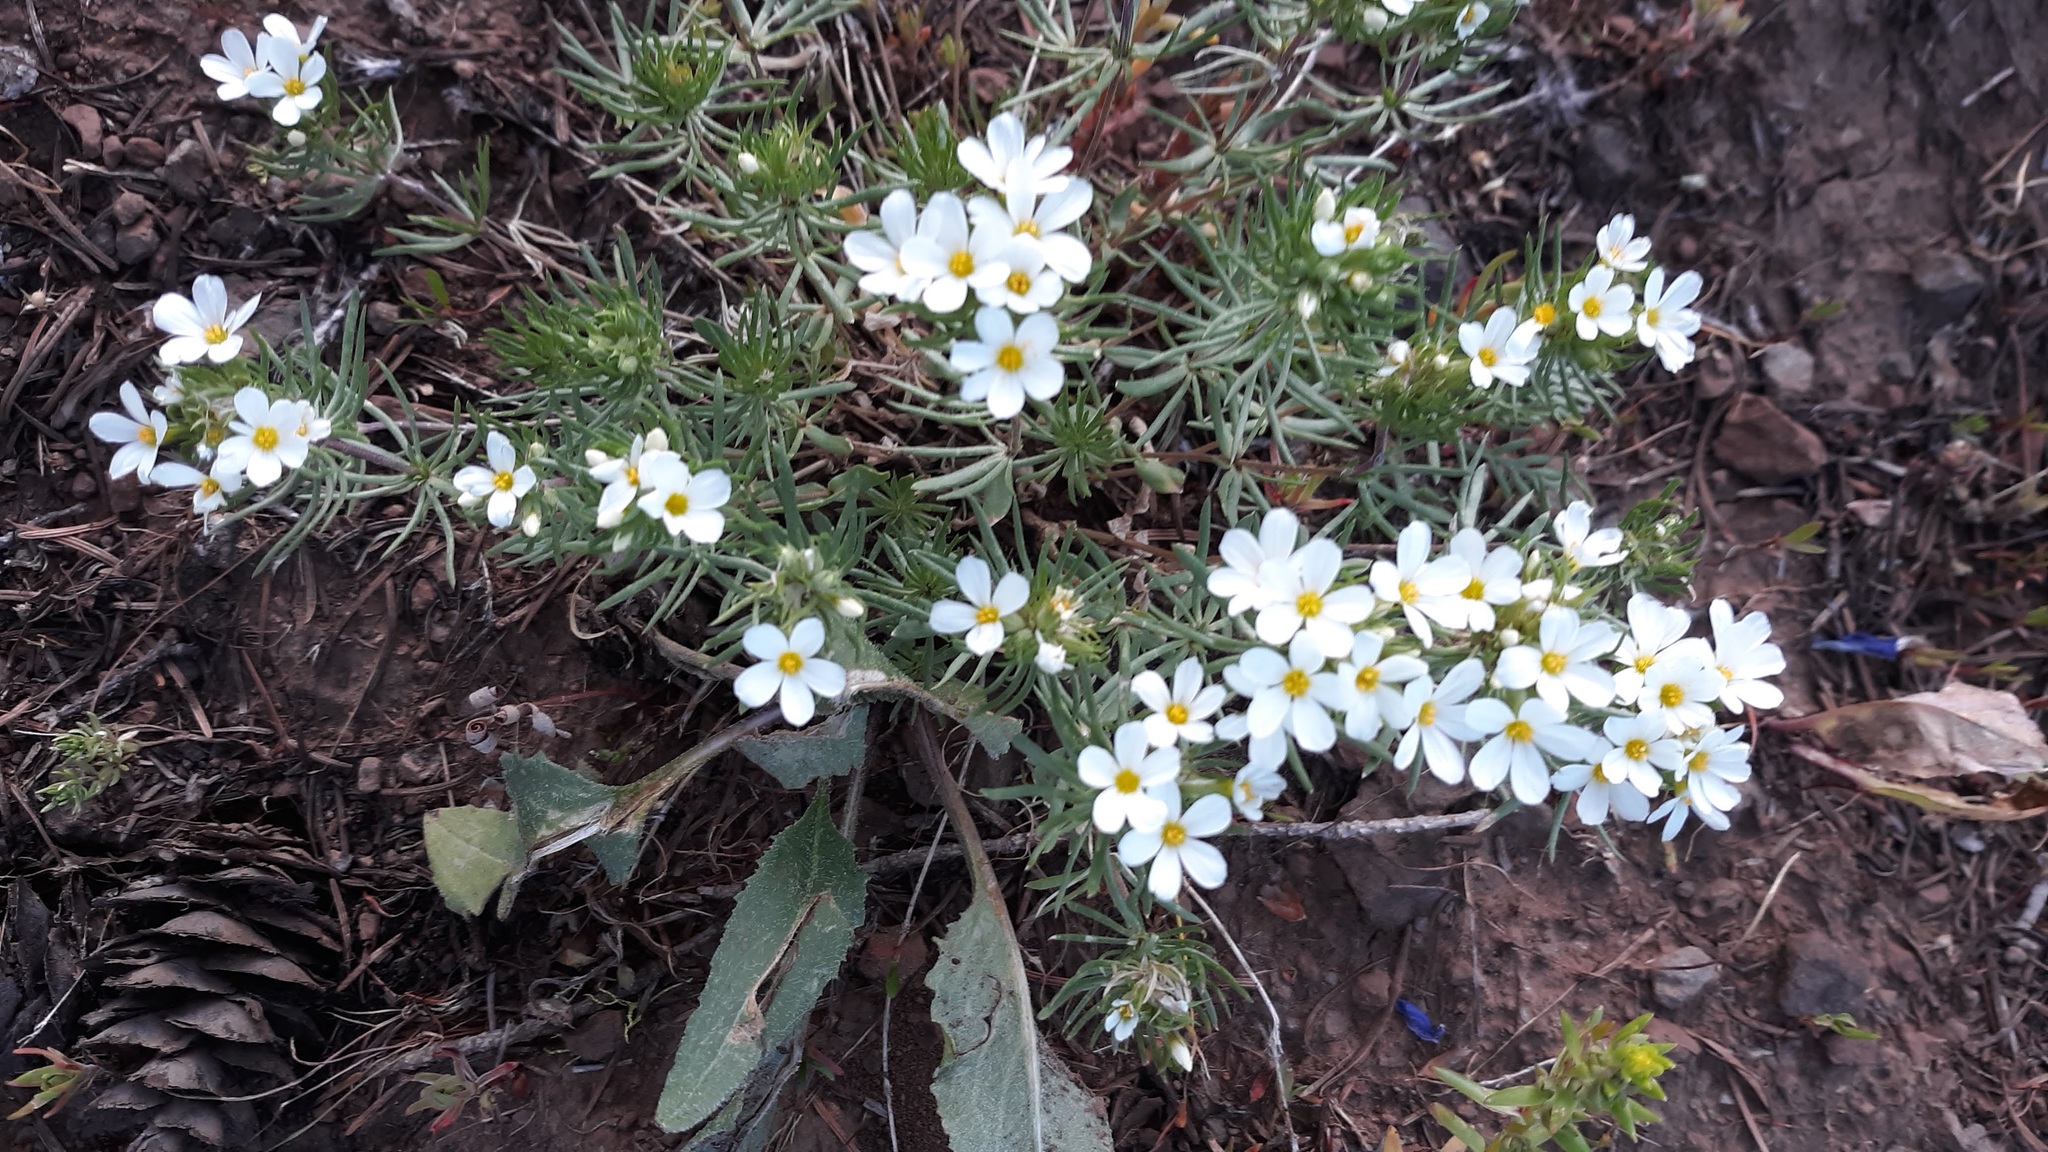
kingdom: Plantae
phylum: Tracheophyta
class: Magnoliopsida
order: Ericales
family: Polemoniaceae
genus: Leptosiphon
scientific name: Leptosiphon nuttallii
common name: Nuttall's linanthus
